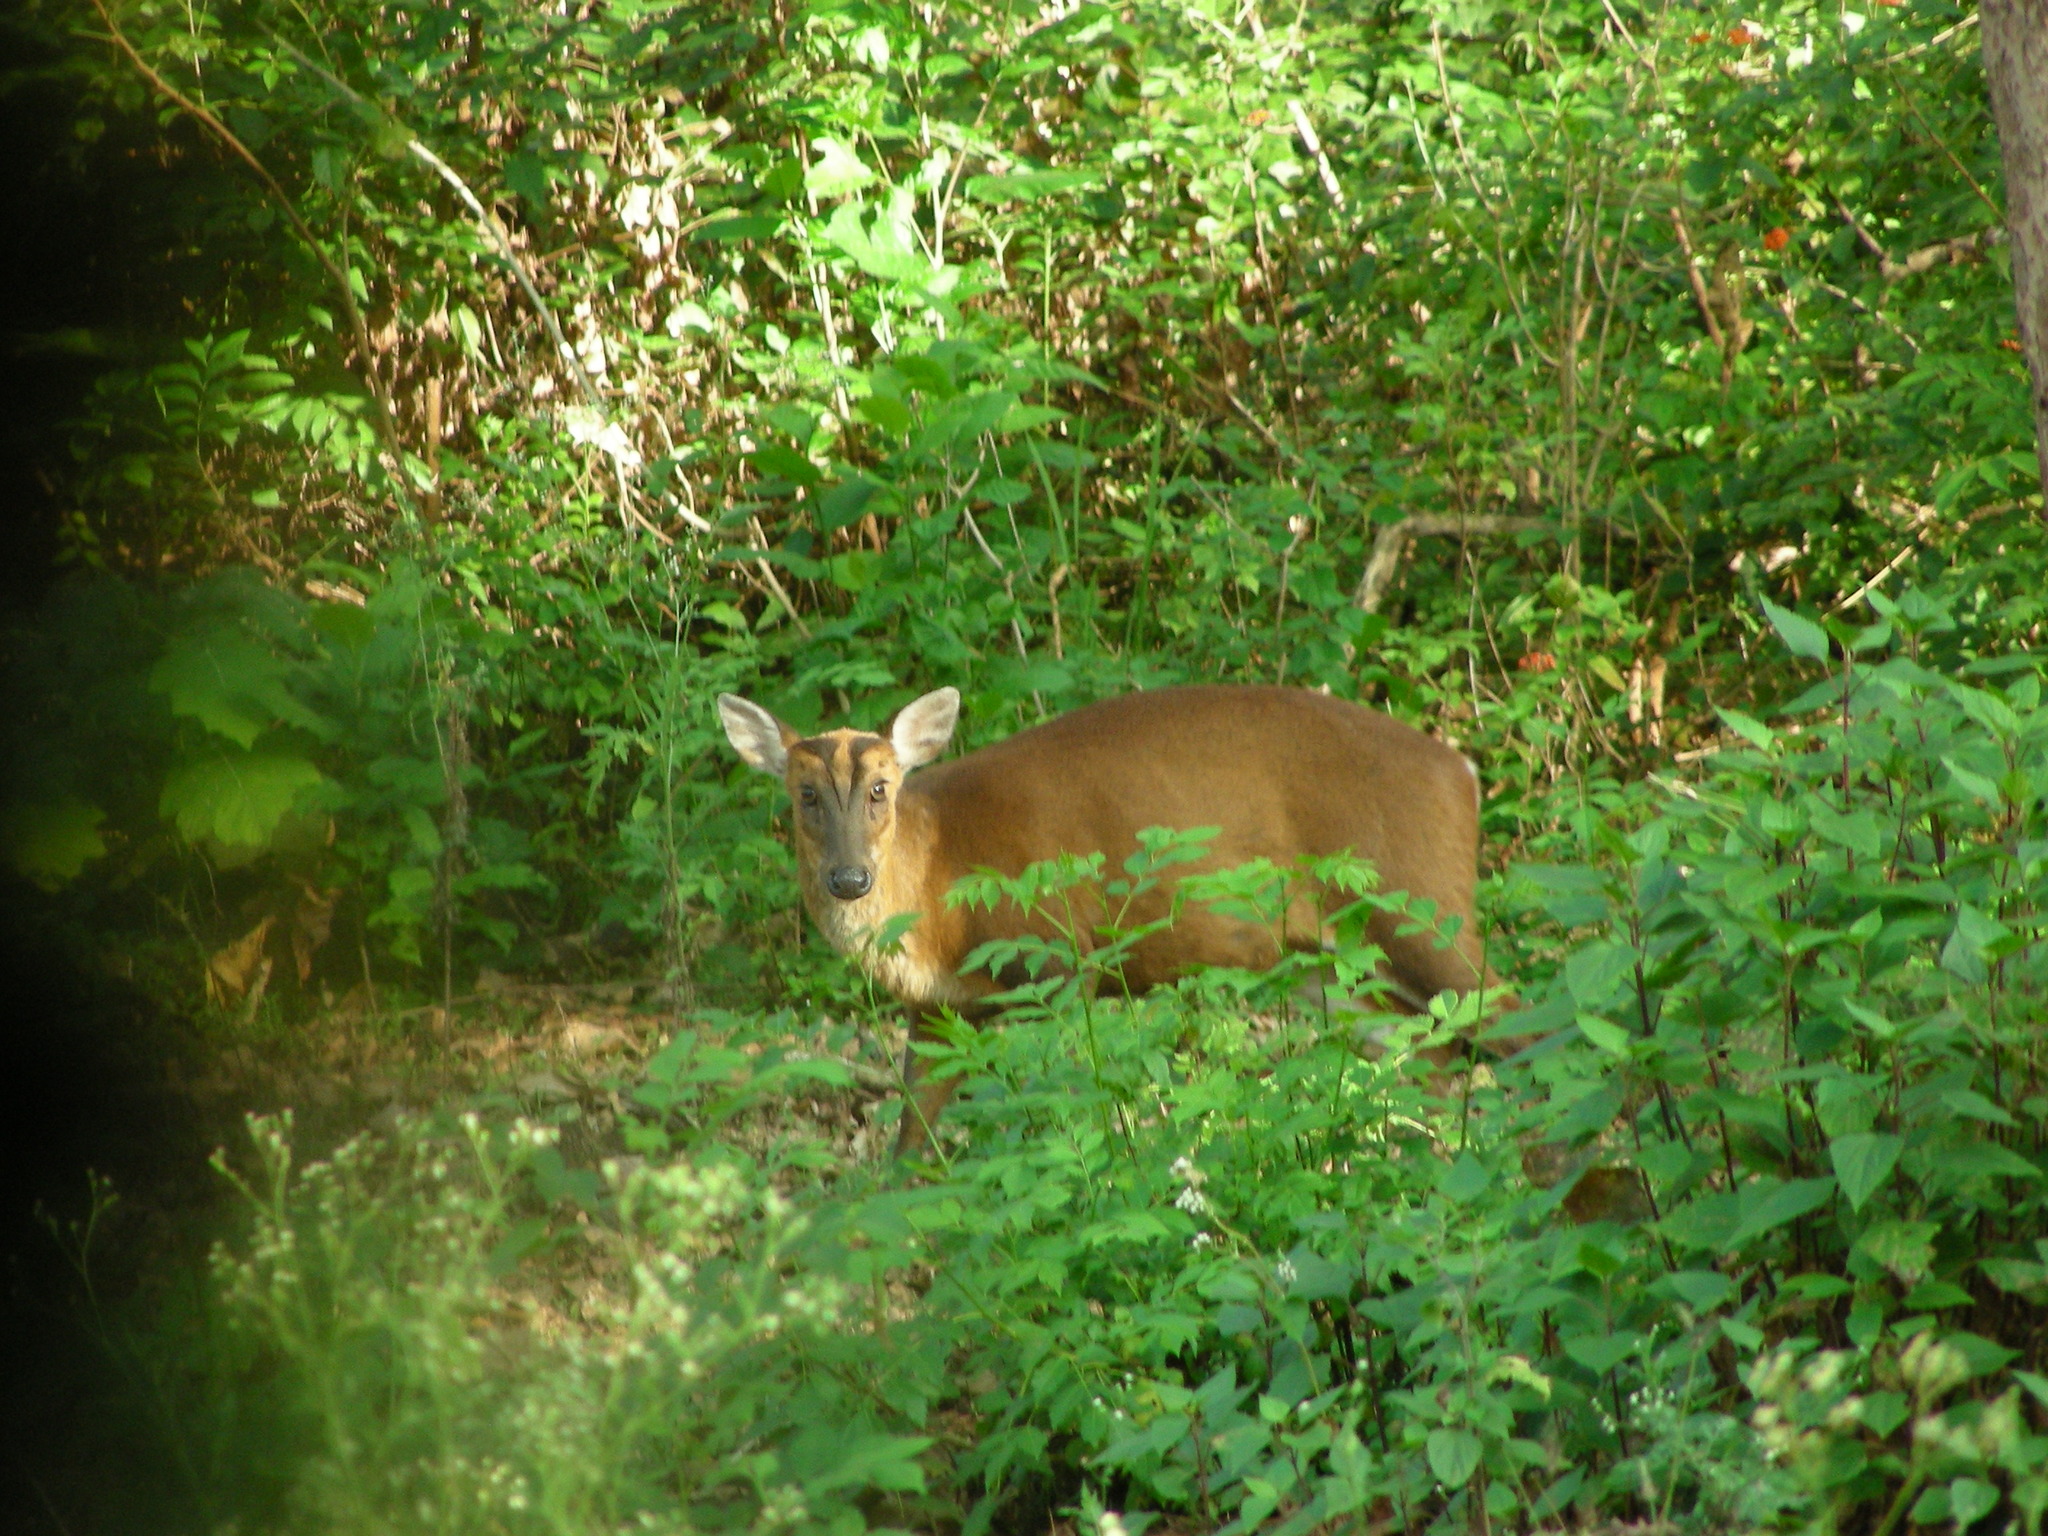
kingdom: Animalia
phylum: Chordata
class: Mammalia
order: Artiodactyla
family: Cervidae
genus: Muntiacus
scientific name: Muntiacus muntjak
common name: Indian muntjac
